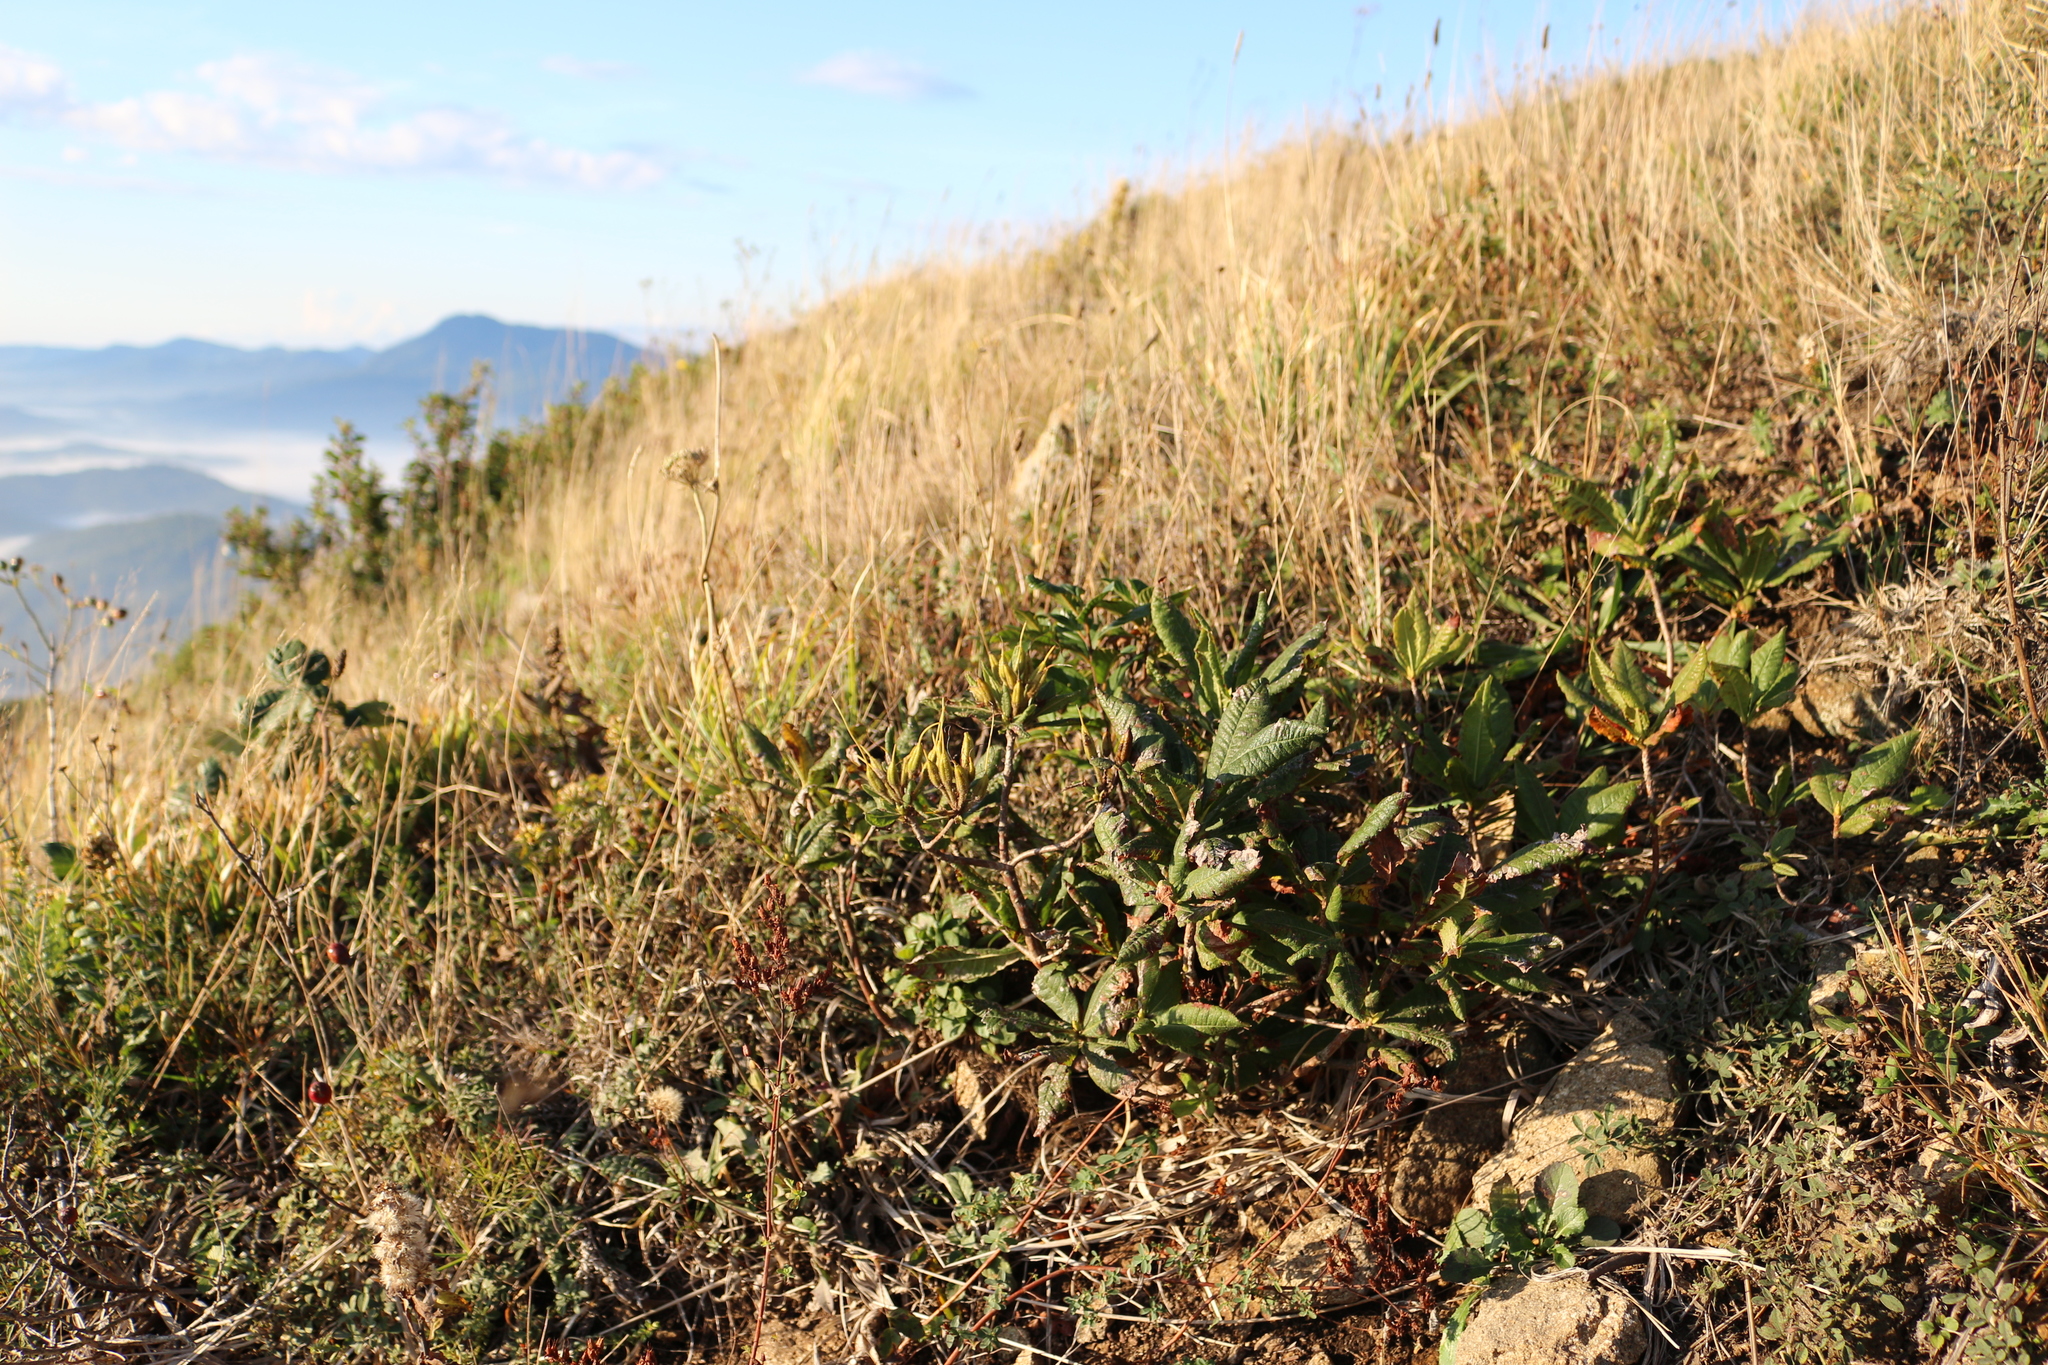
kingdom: Plantae
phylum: Tracheophyta
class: Magnoliopsida
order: Ericales
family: Ericaceae
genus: Rhododendron
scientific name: Rhododendron luteum
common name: Yellow azalea
